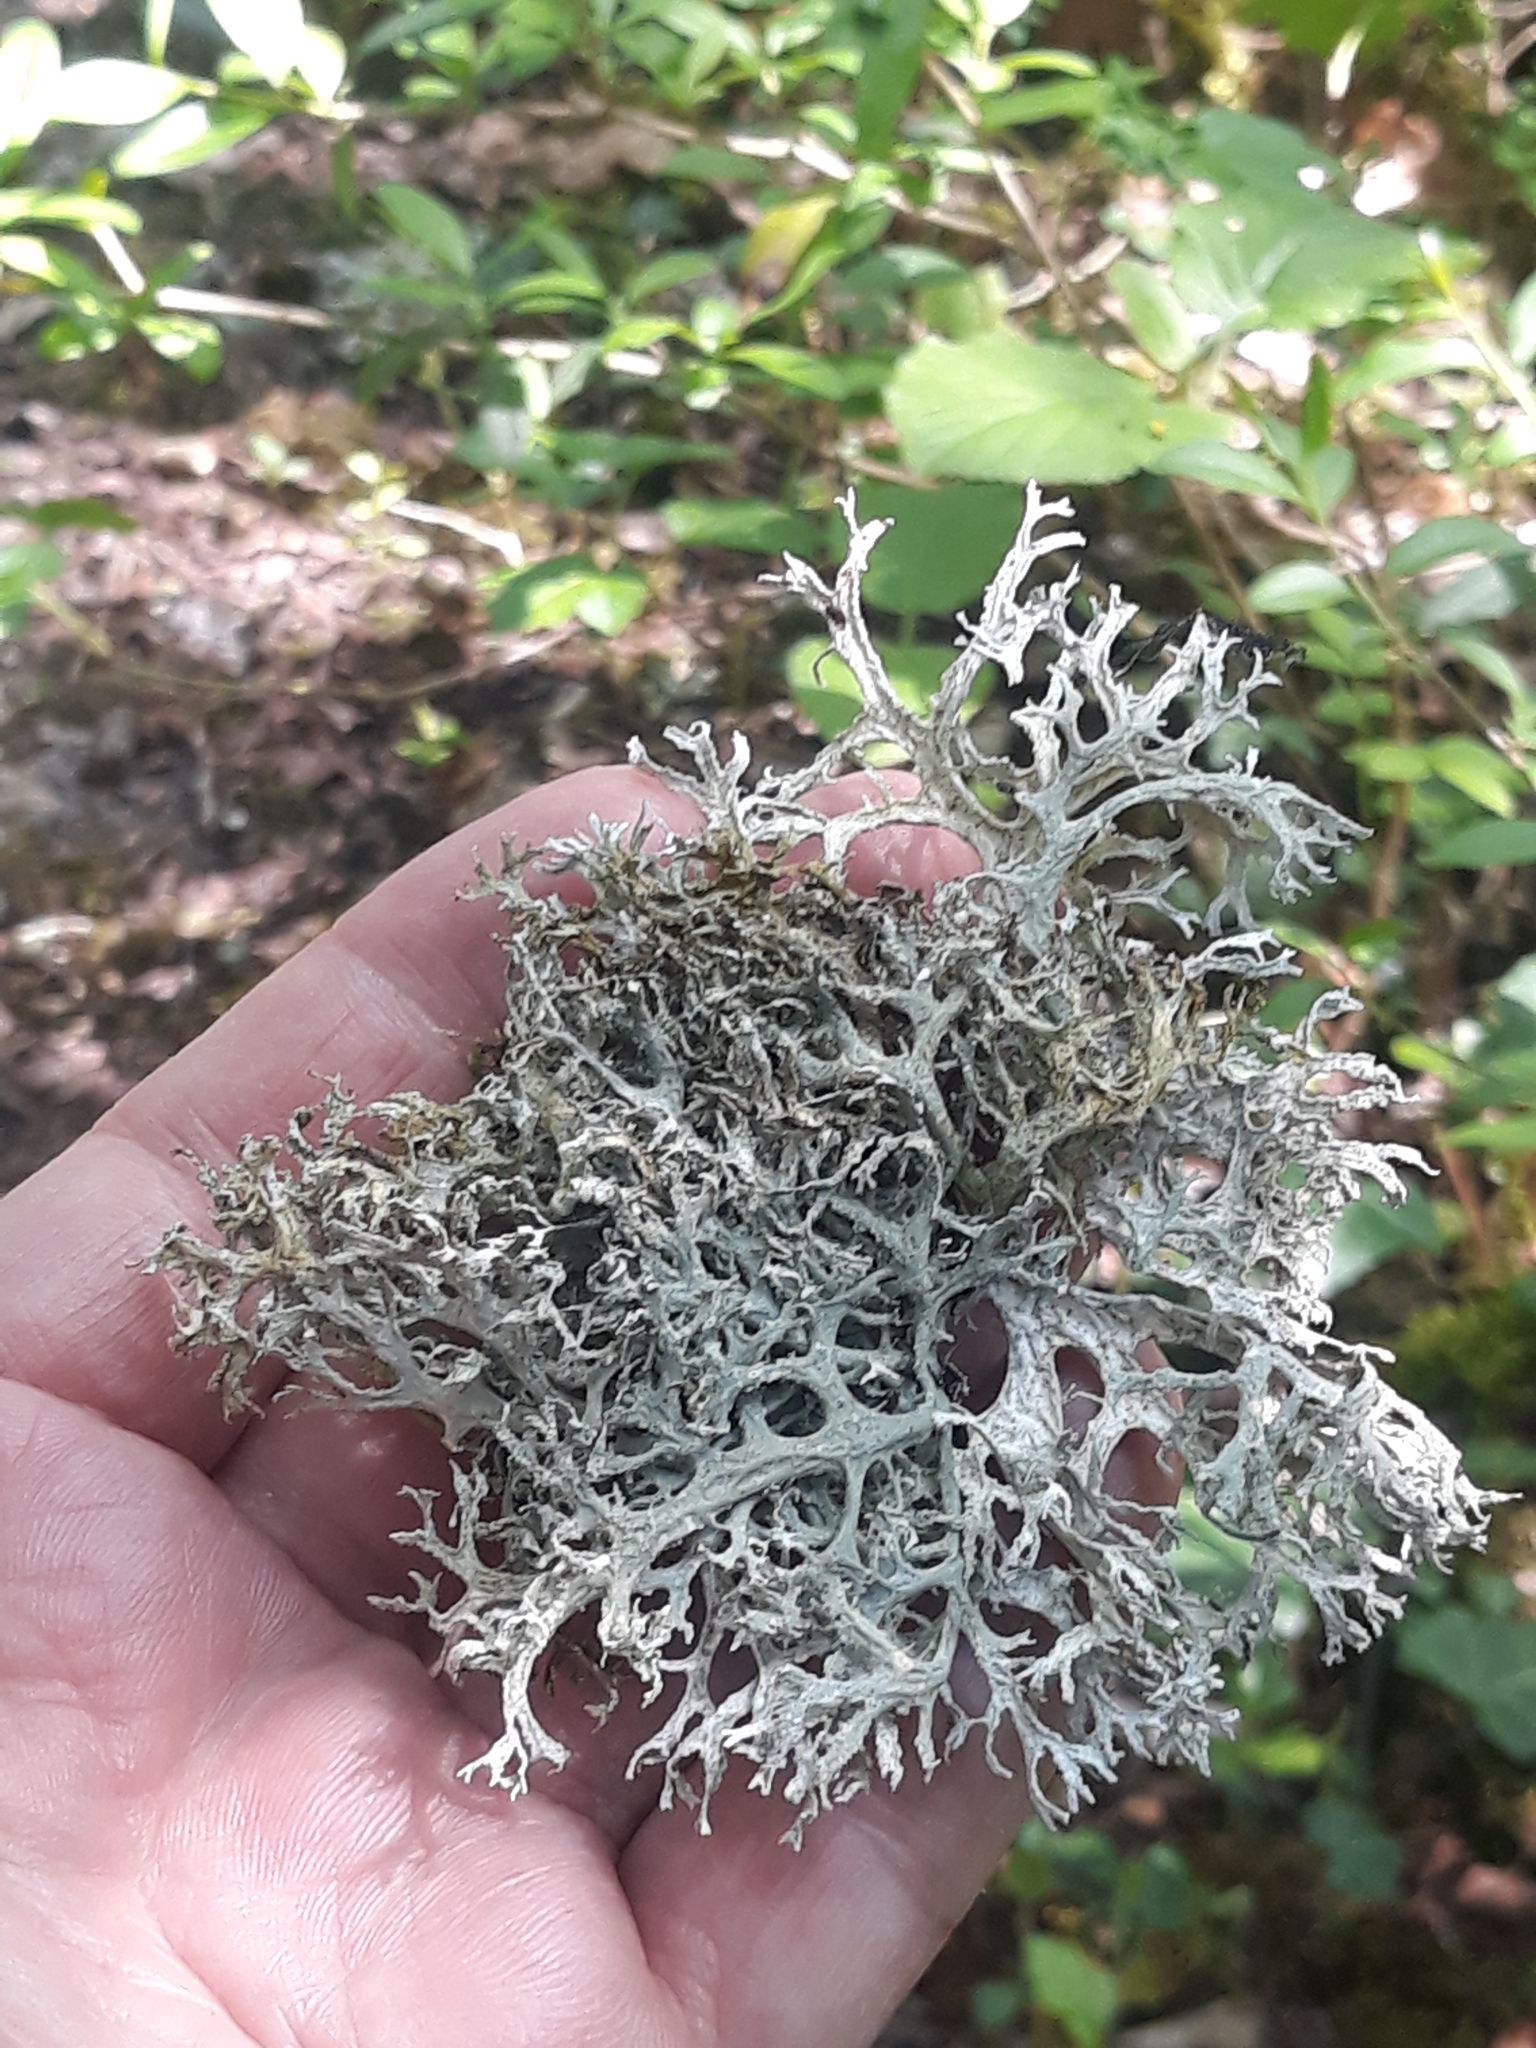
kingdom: Fungi
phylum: Ascomycota
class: Lecanoromycetes
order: Lecanorales
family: Parmeliaceae
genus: Evernia
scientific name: Evernia prunastri
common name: Oak moss
